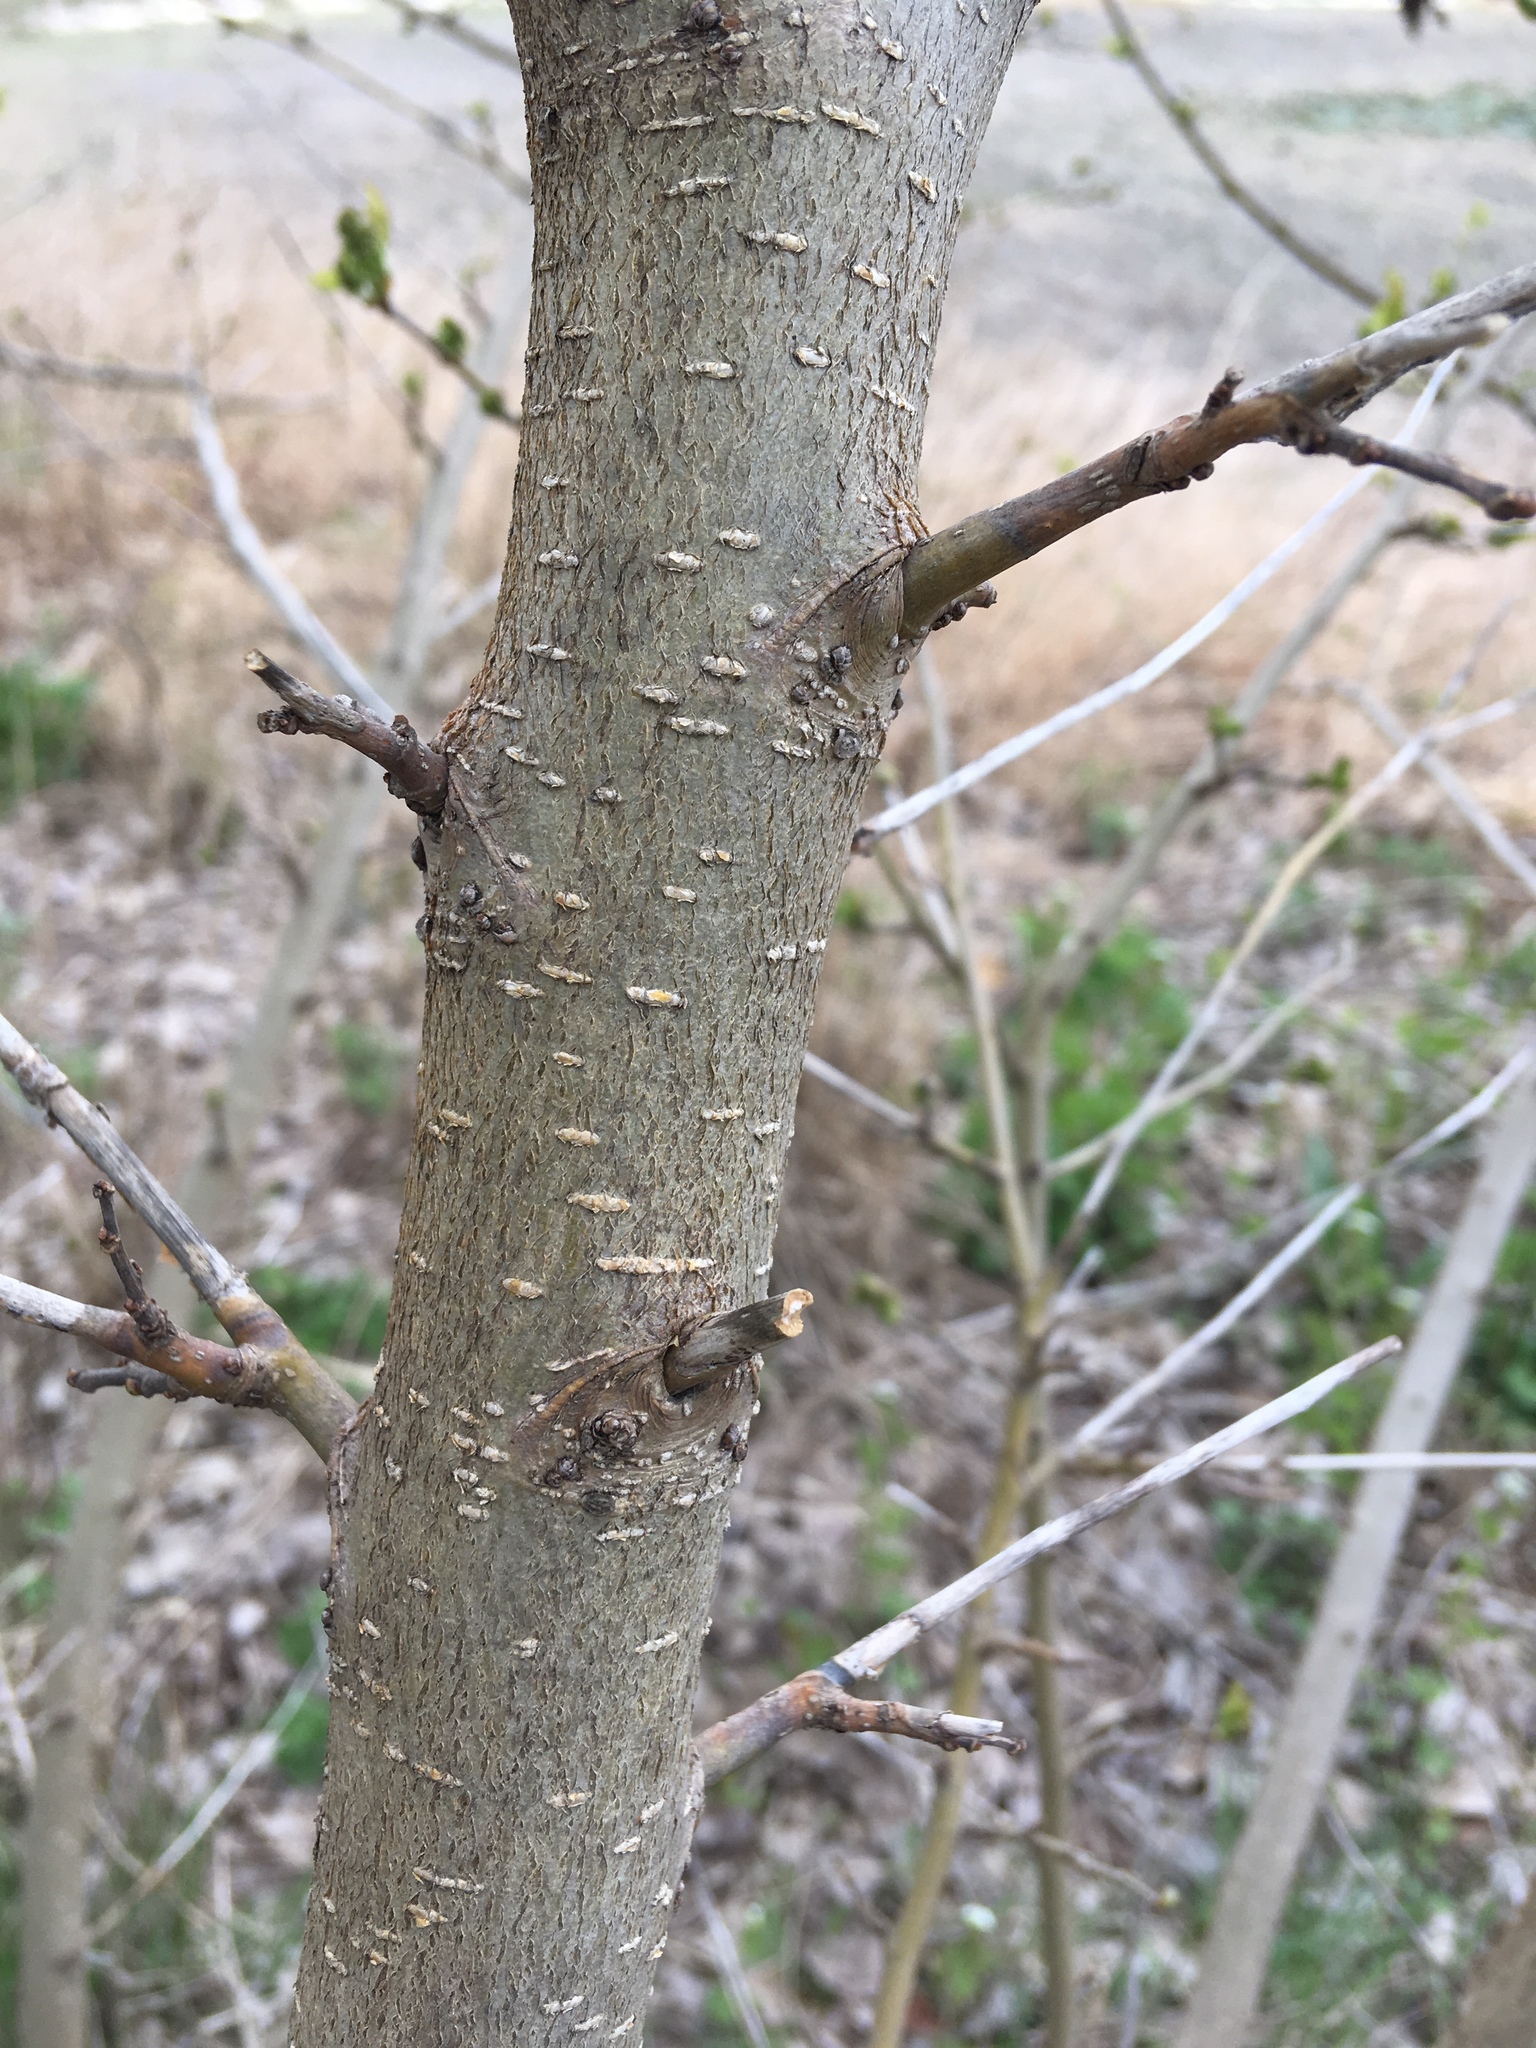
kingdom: Plantae
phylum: Tracheophyta
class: Magnoliopsida
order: Fabales
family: Fabaceae
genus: Robinia
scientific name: Robinia pseudoacacia
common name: Black locust
